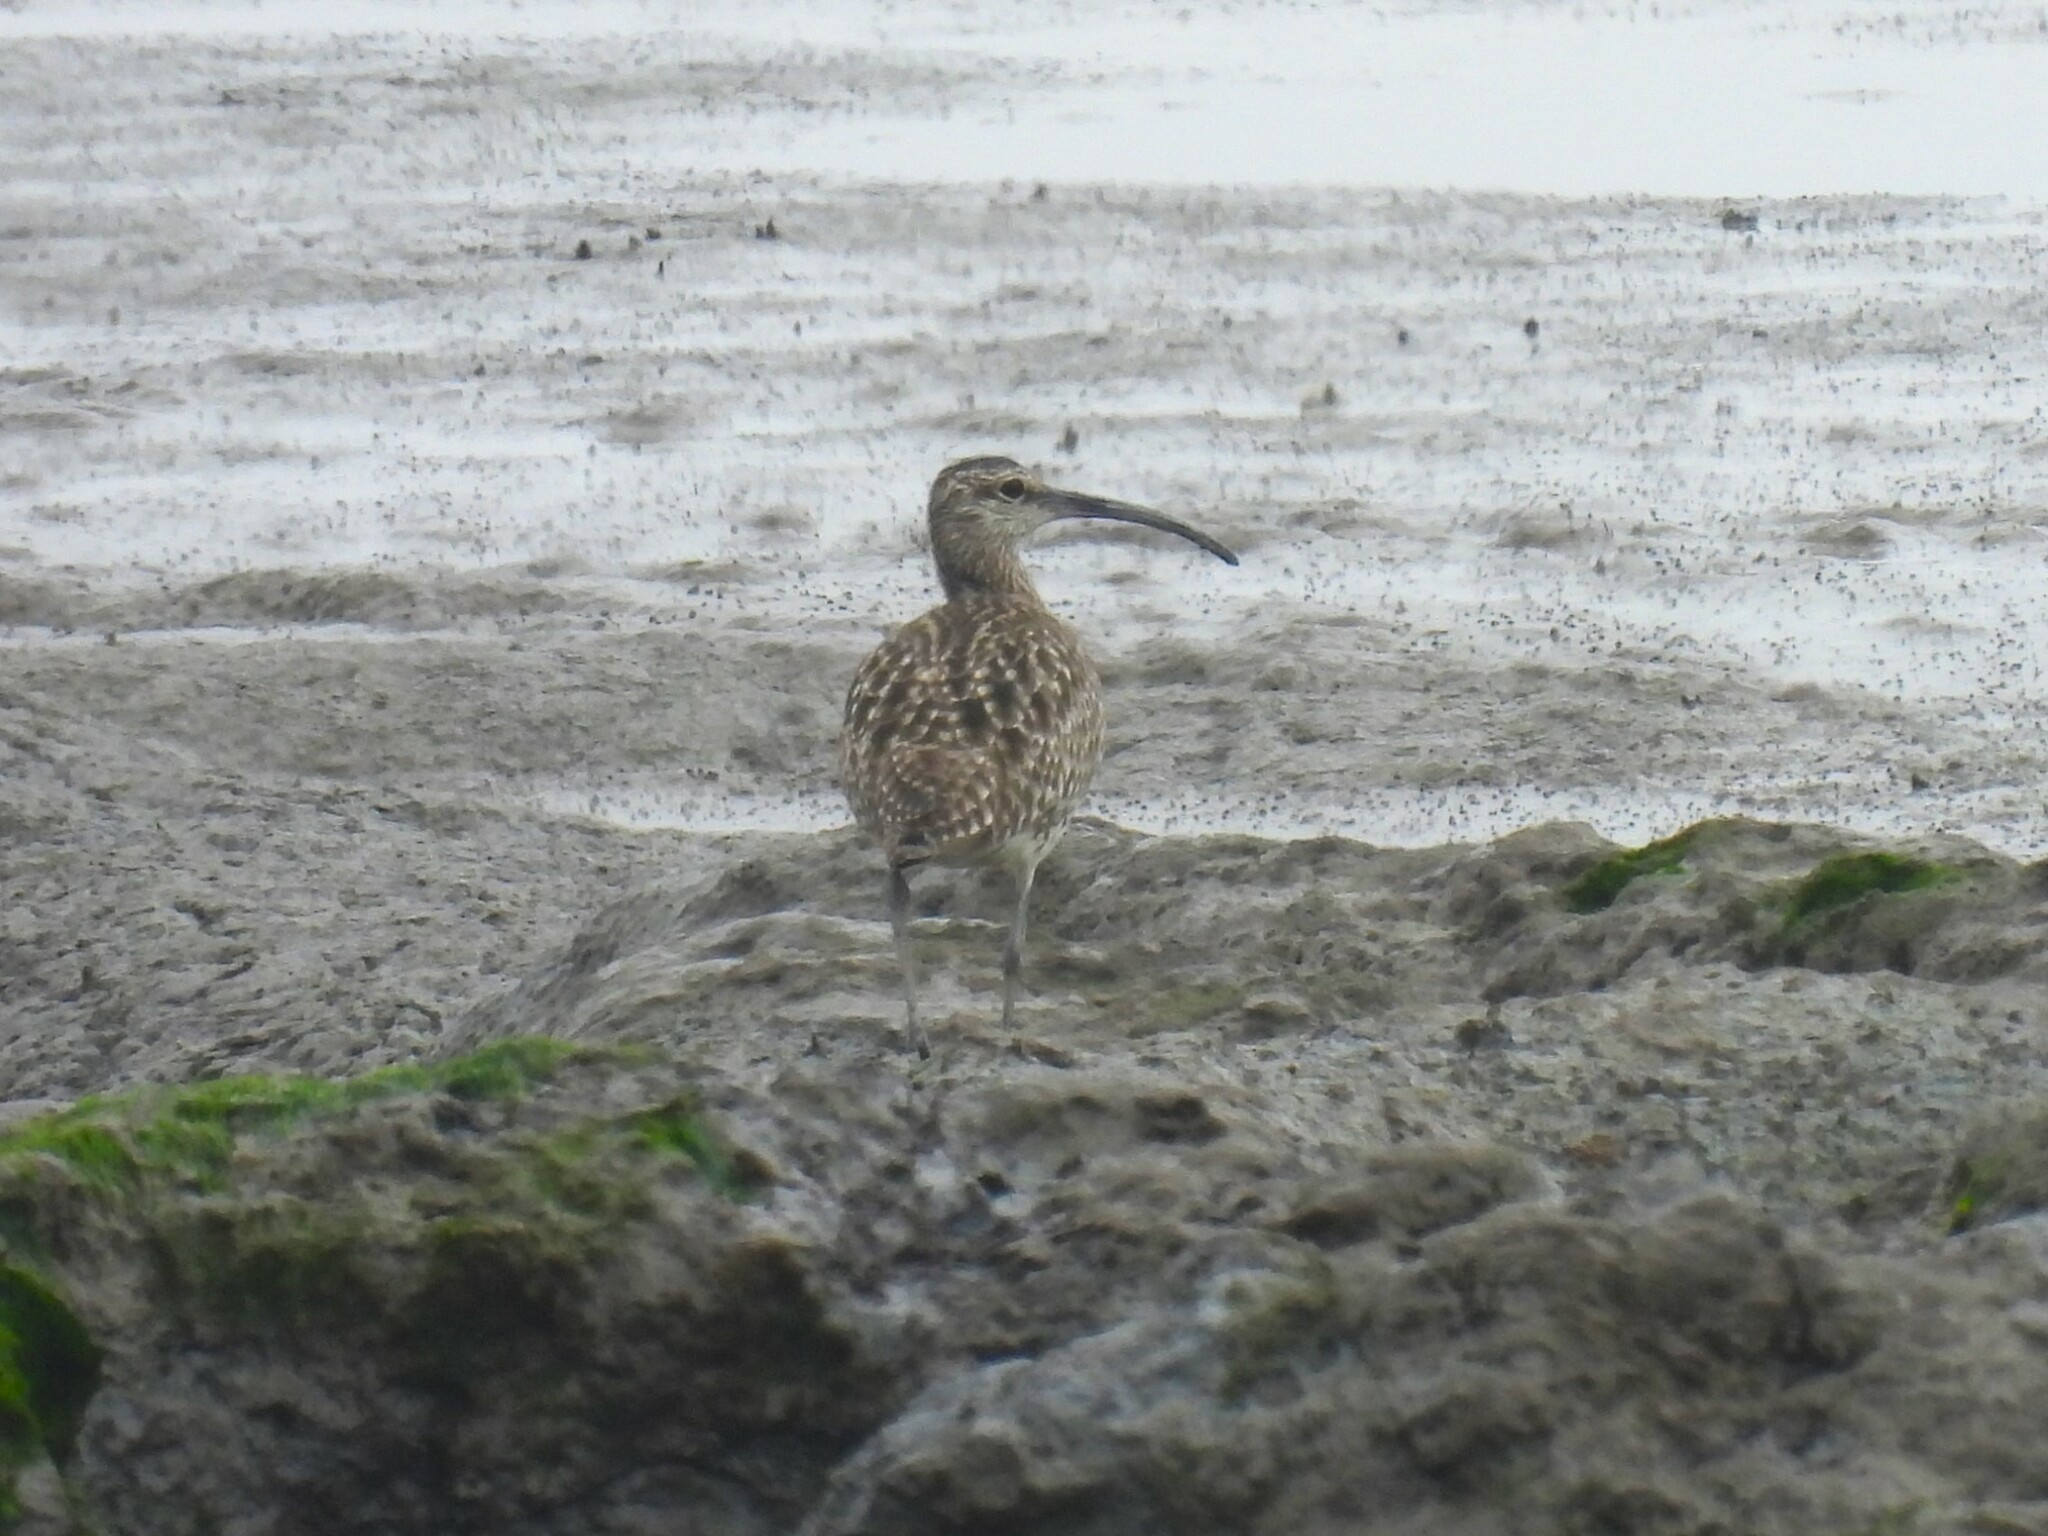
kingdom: Animalia
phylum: Chordata
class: Aves
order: Charadriiformes
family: Scolopacidae
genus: Numenius
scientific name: Numenius arquata
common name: Eurasian curlew
